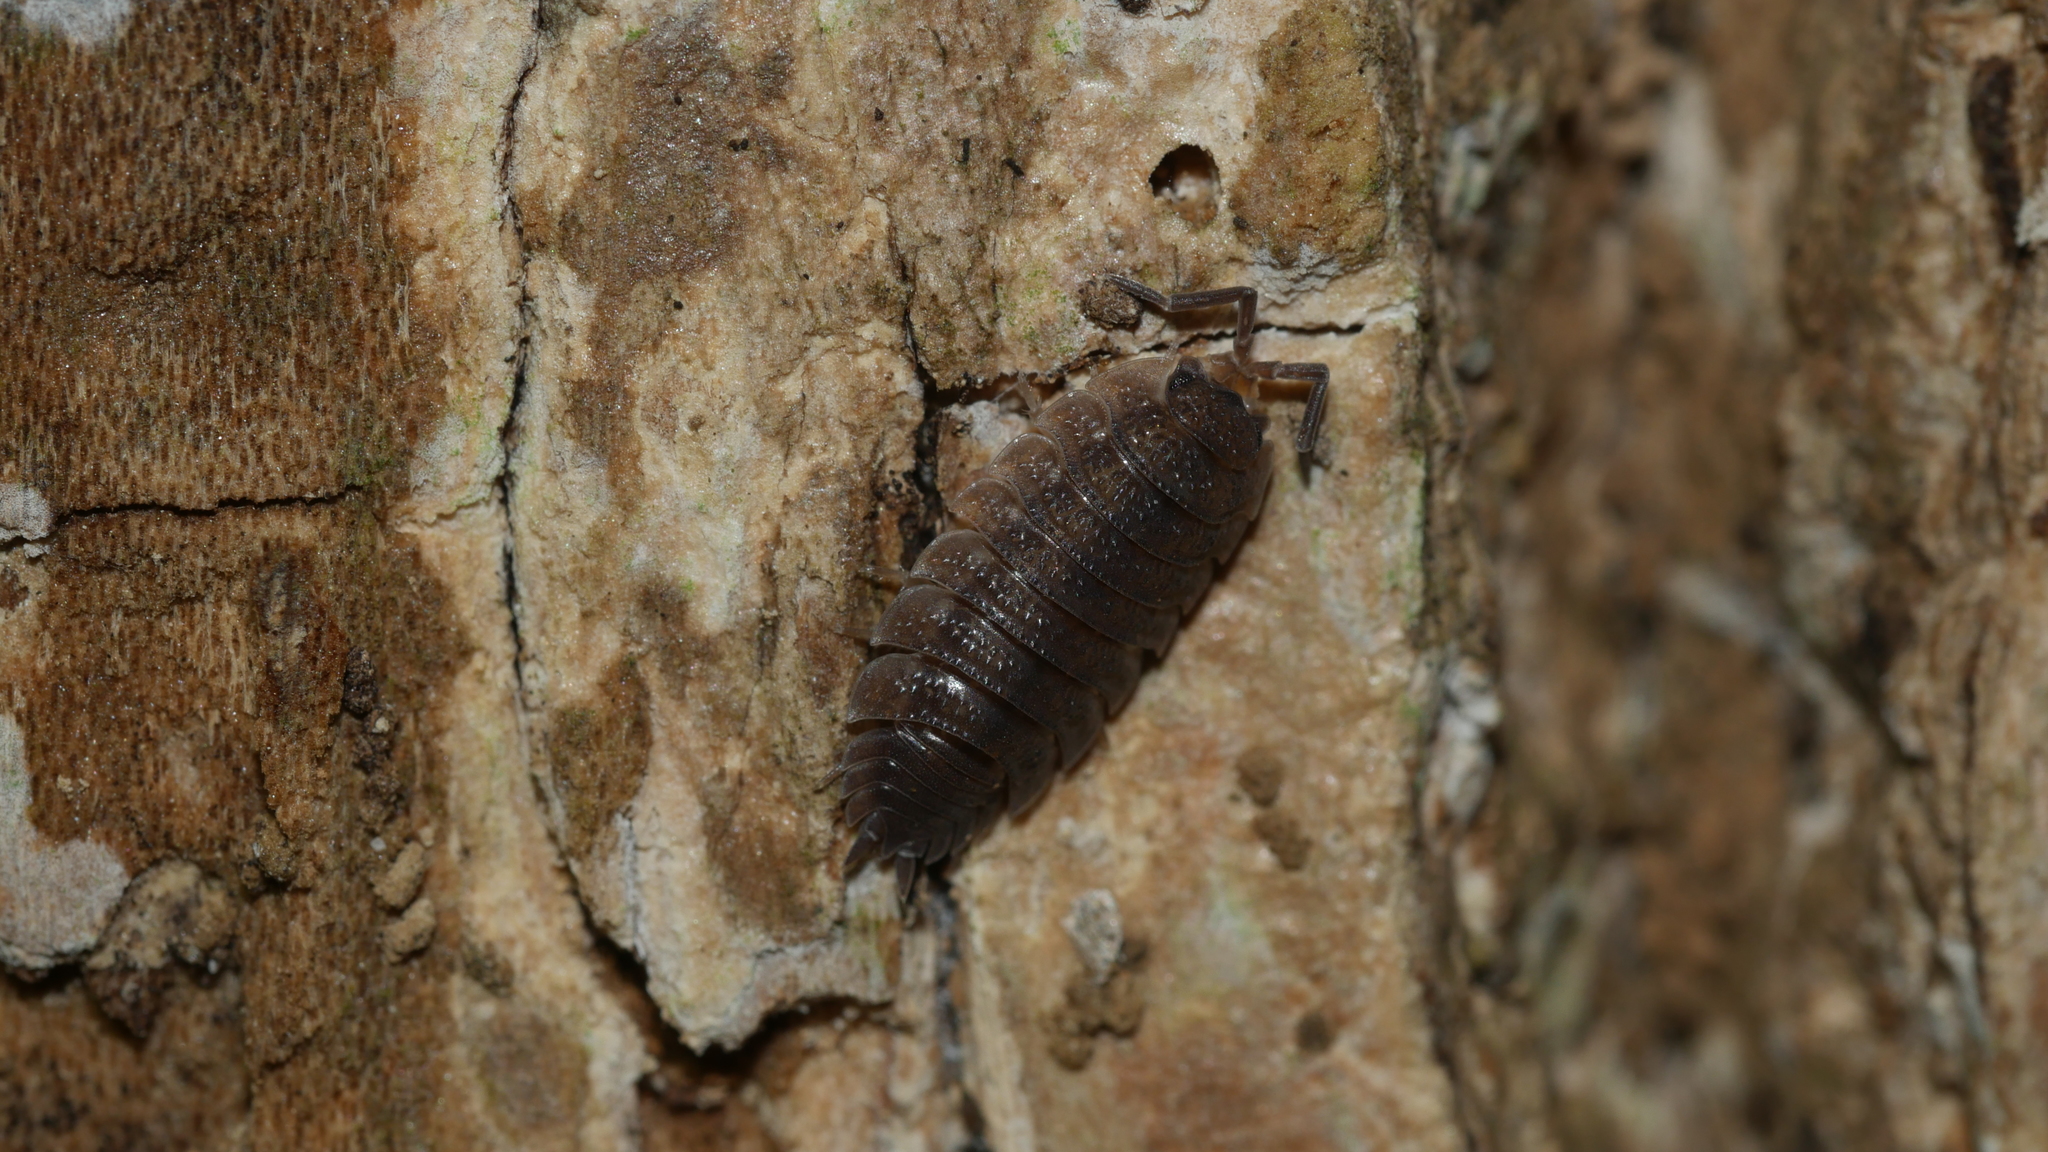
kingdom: Animalia
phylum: Arthropoda
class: Malacostraca
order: Isopoda
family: Porcellionidae
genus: Porcellio
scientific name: Porcellio scaber
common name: Common rough woodlouse
